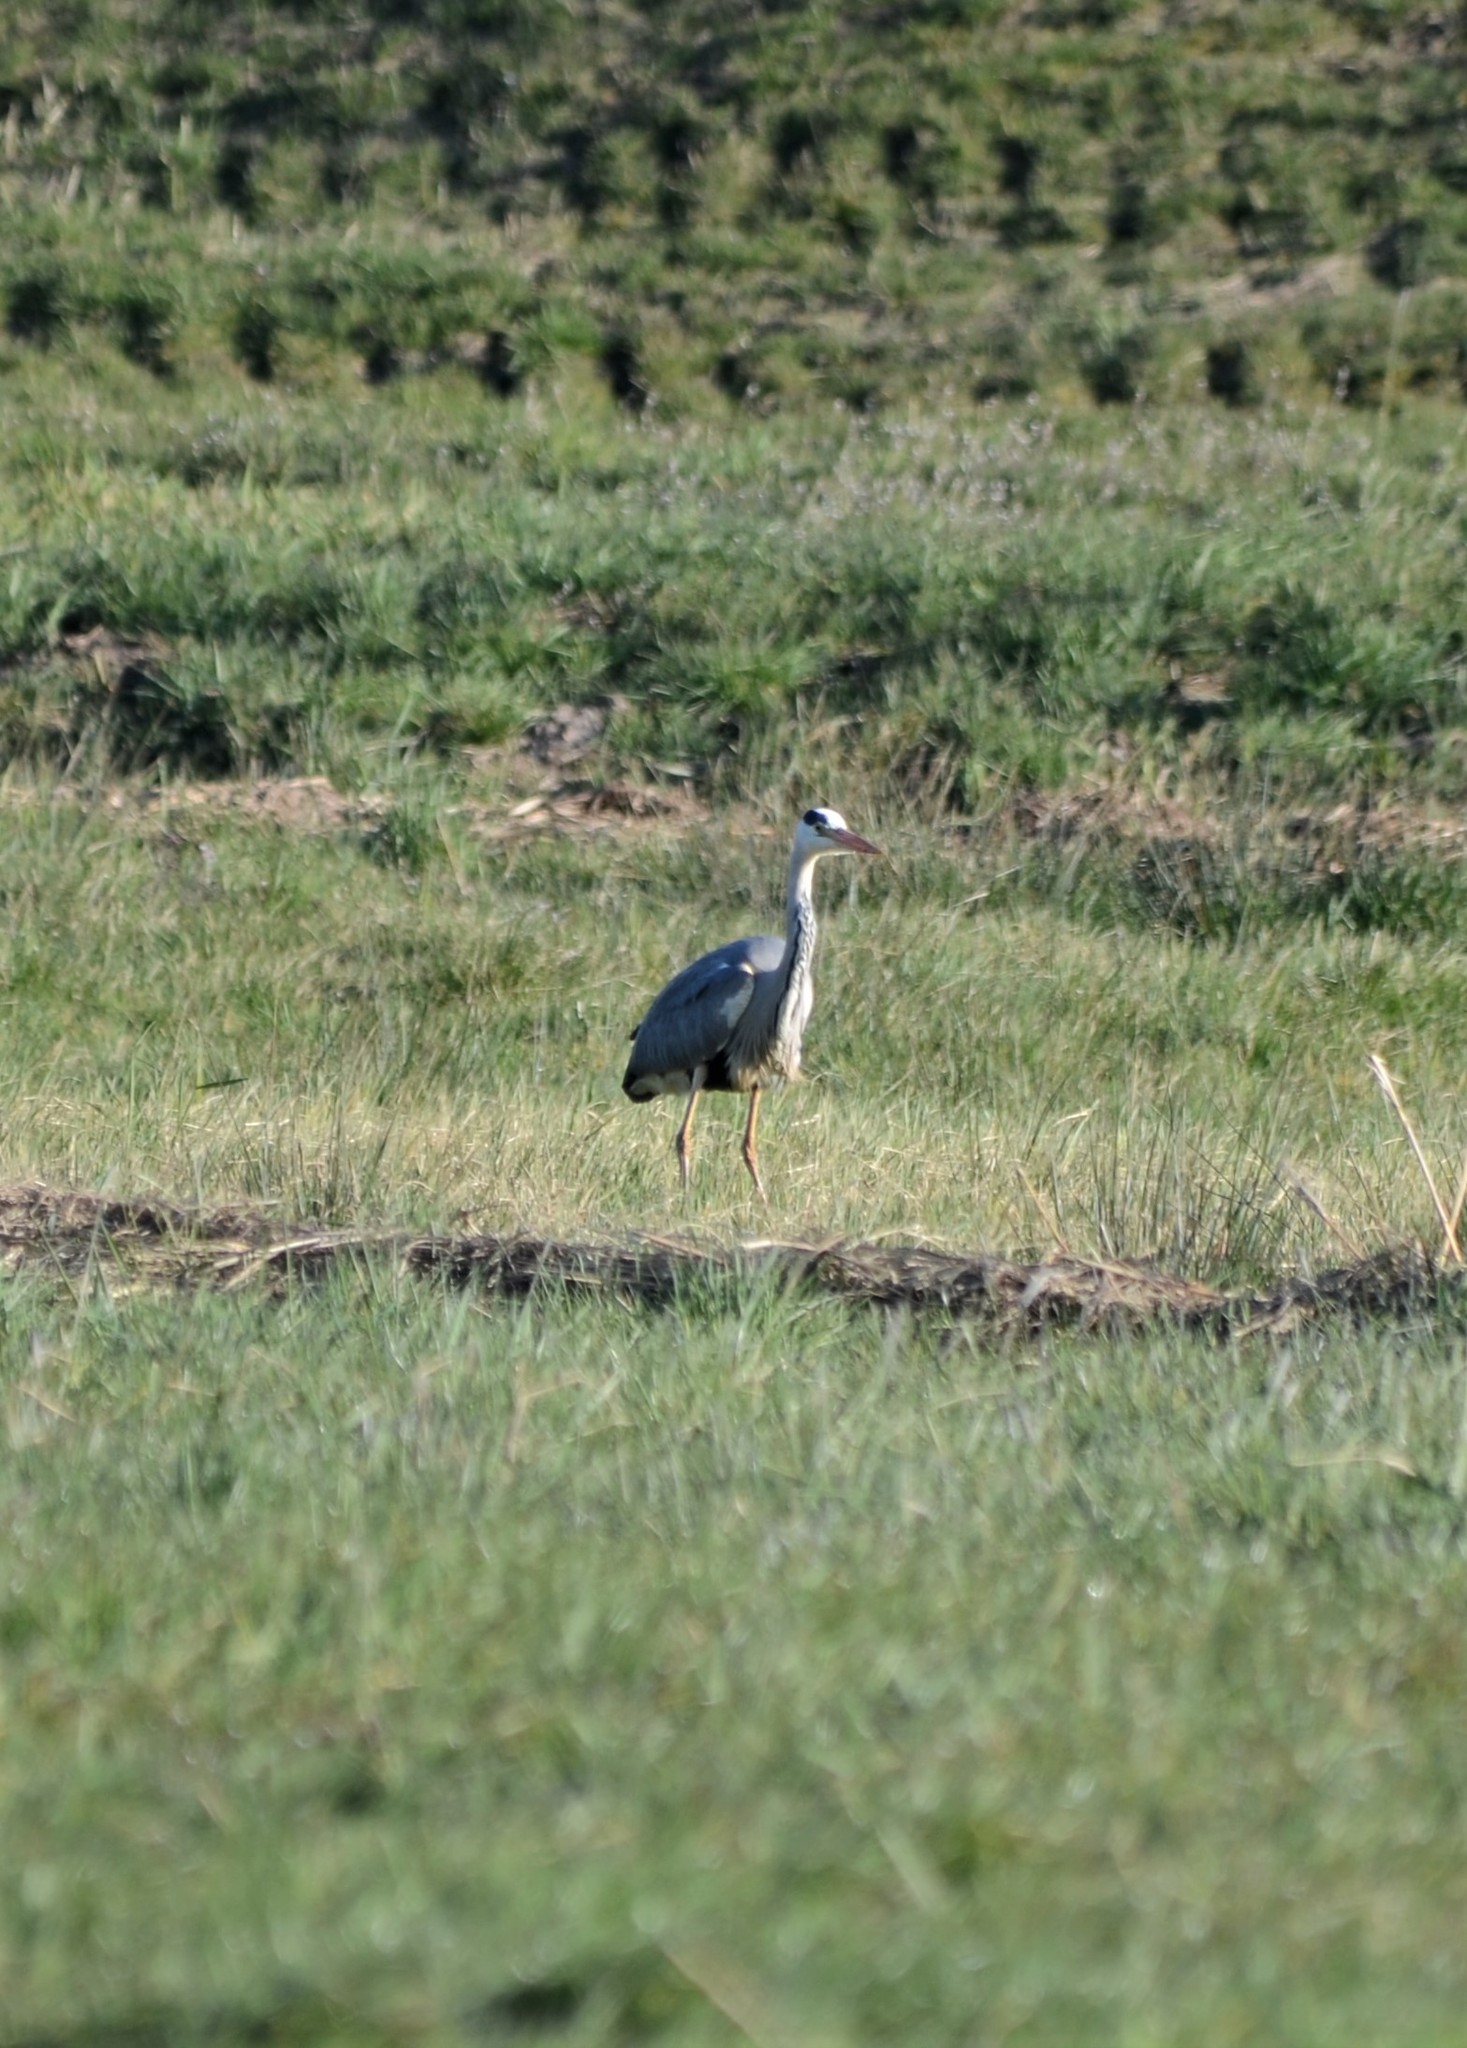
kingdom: Animalia
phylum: Chordata
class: Aves
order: Pelecaniformes
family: Ardeidae
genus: Ardea
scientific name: Ardea cinerea
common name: Grey heron
